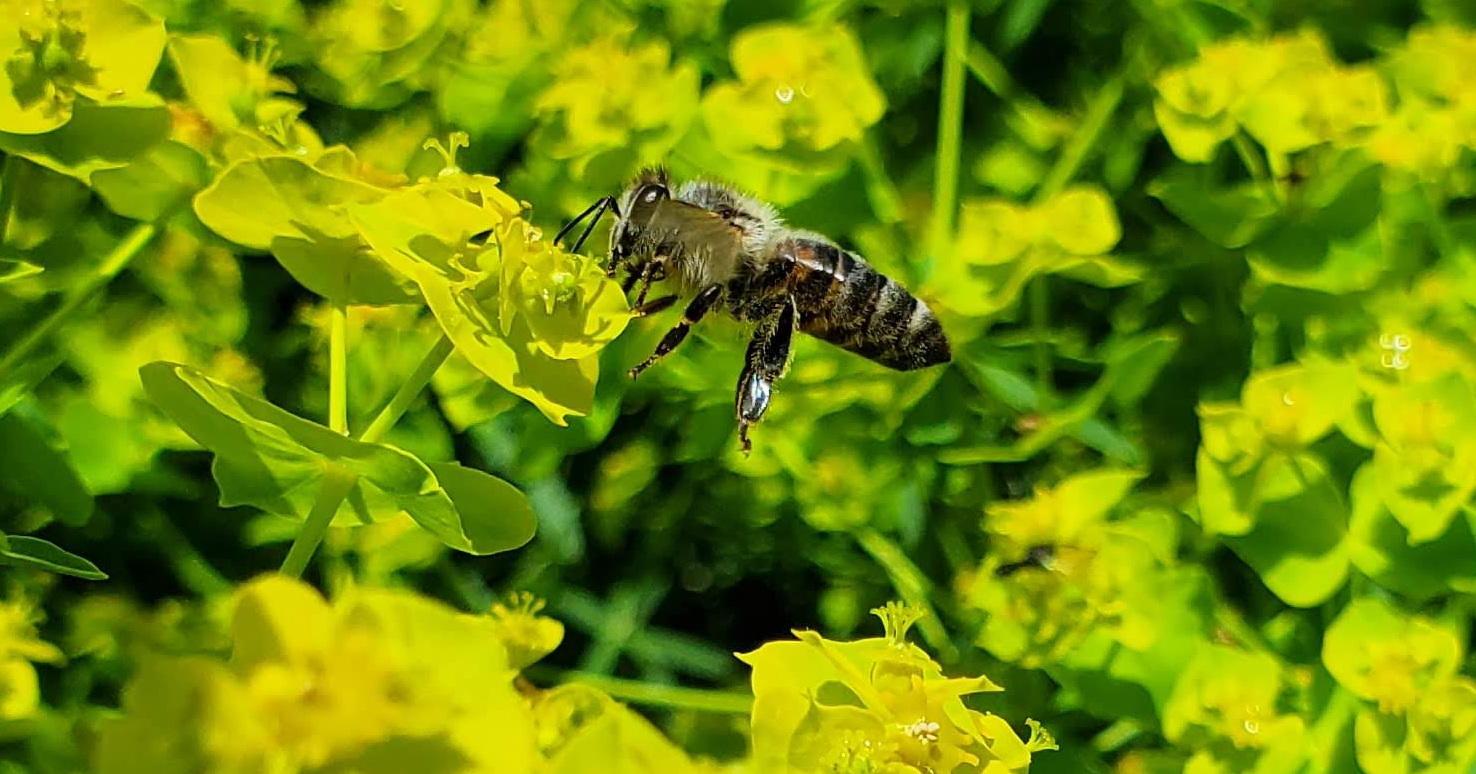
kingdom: Animalia
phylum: Arthropoda
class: Insecta
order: Hymenoptera
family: Apidae
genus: Apis
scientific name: Apis mellifera
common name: Honey bee
